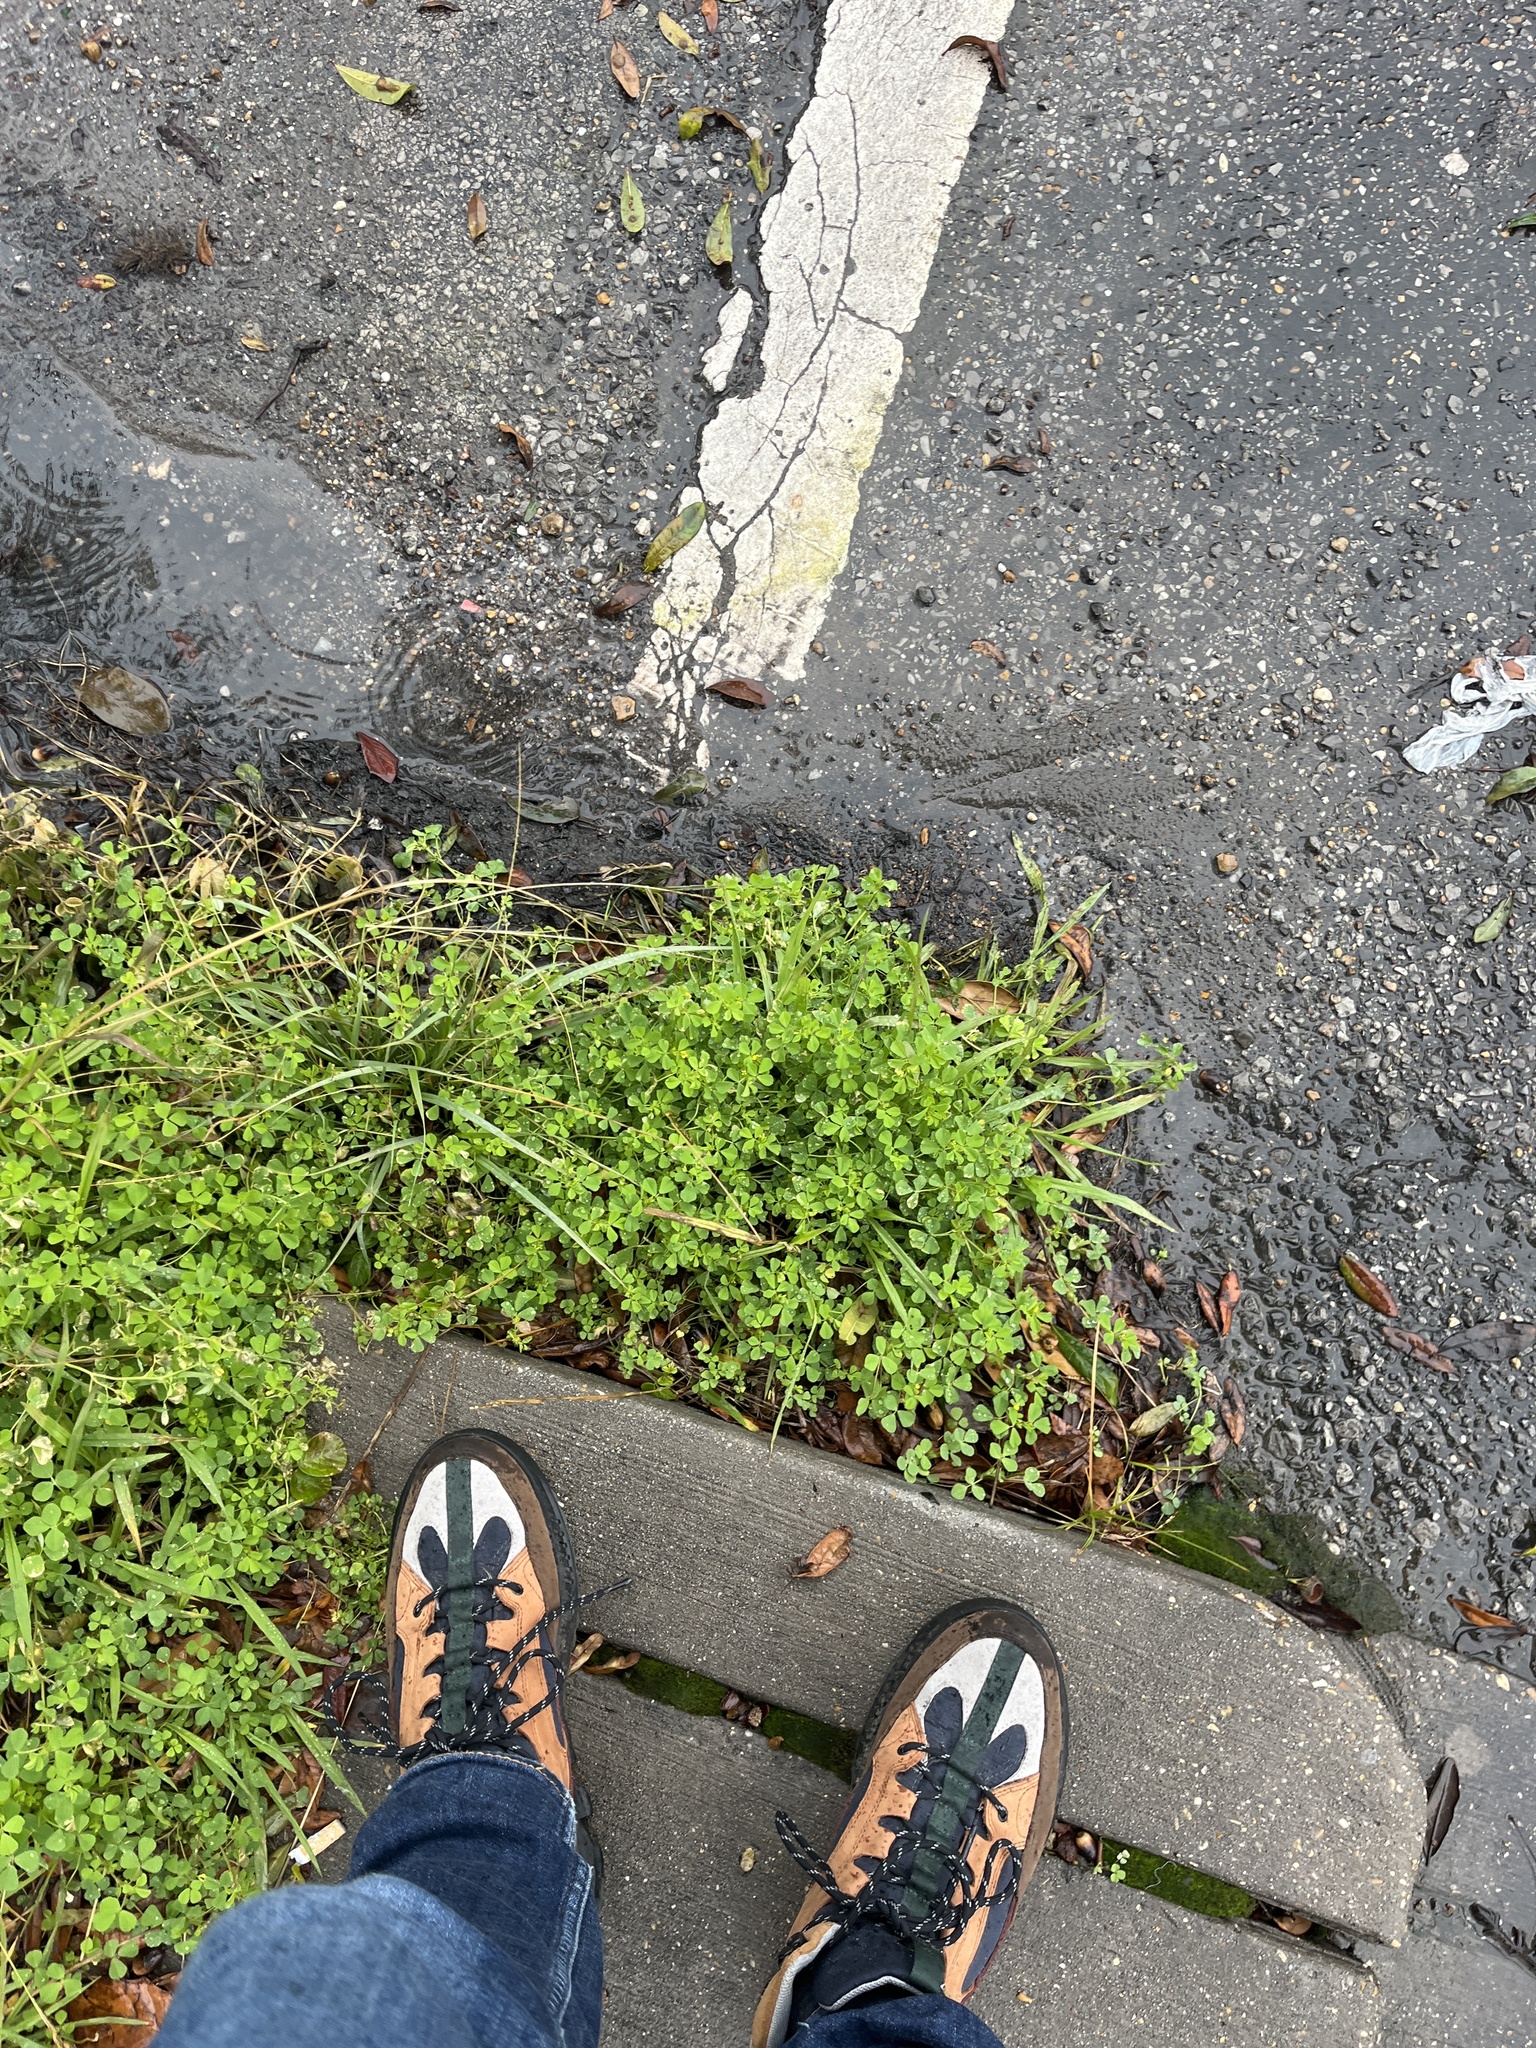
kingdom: Plantae
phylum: Tracheophyta
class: Magnoliopsida
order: Fabales
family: Fabaceae
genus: Medicago
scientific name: Medicago polymorpha
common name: Burclover
